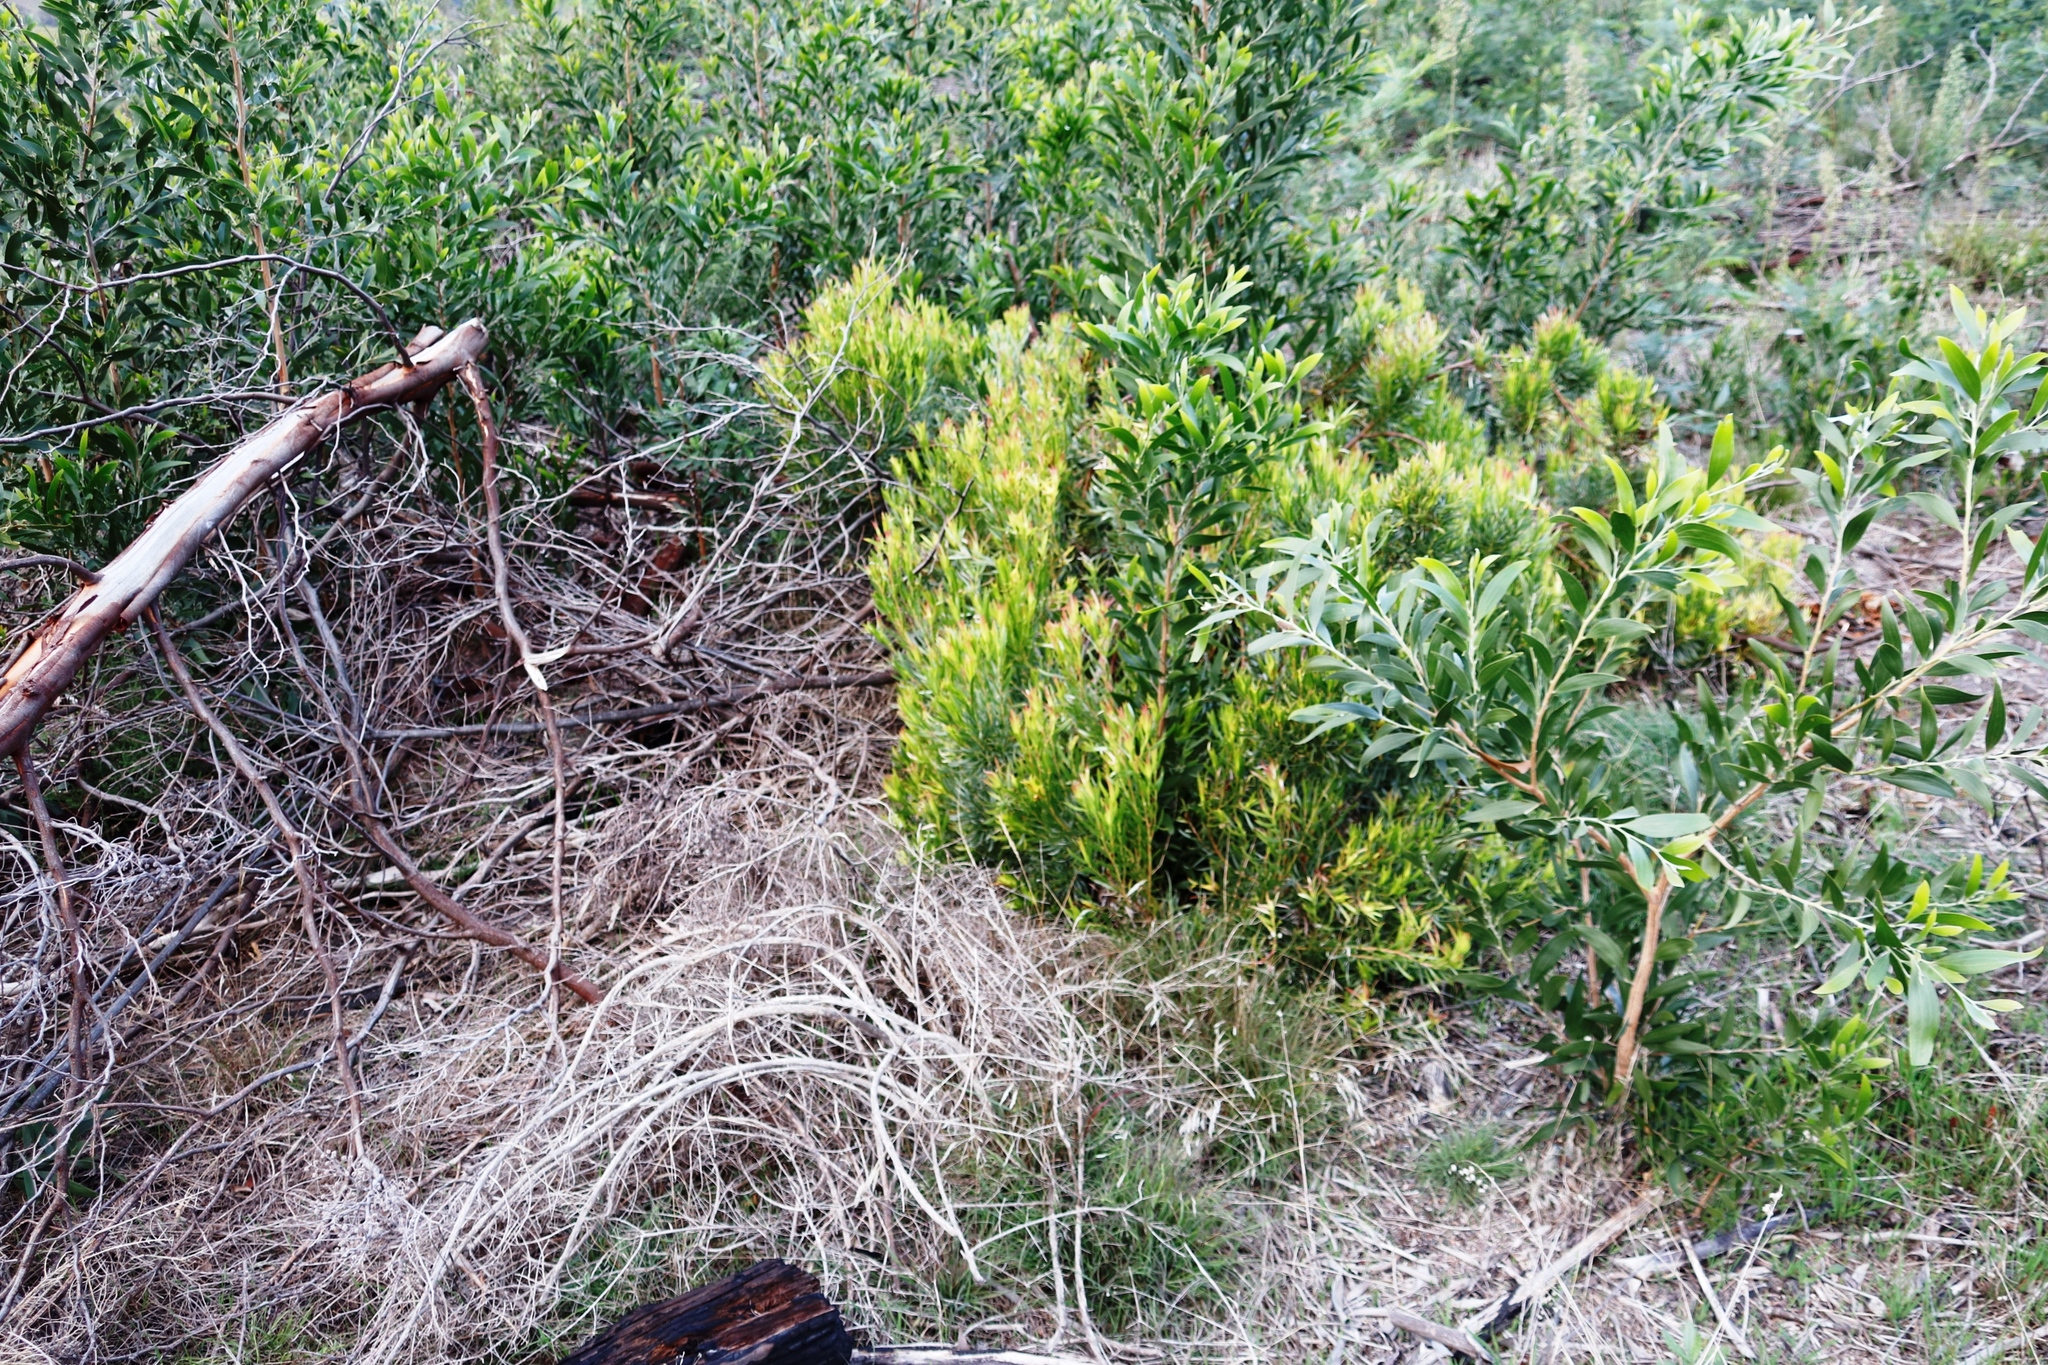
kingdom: Plantae
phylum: Tracheophyta
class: Magnoliopsida
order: Proteales
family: Proteaceae
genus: Leucadendron
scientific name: Leucadendron xanthoconus
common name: Sickle-leaf conebush
